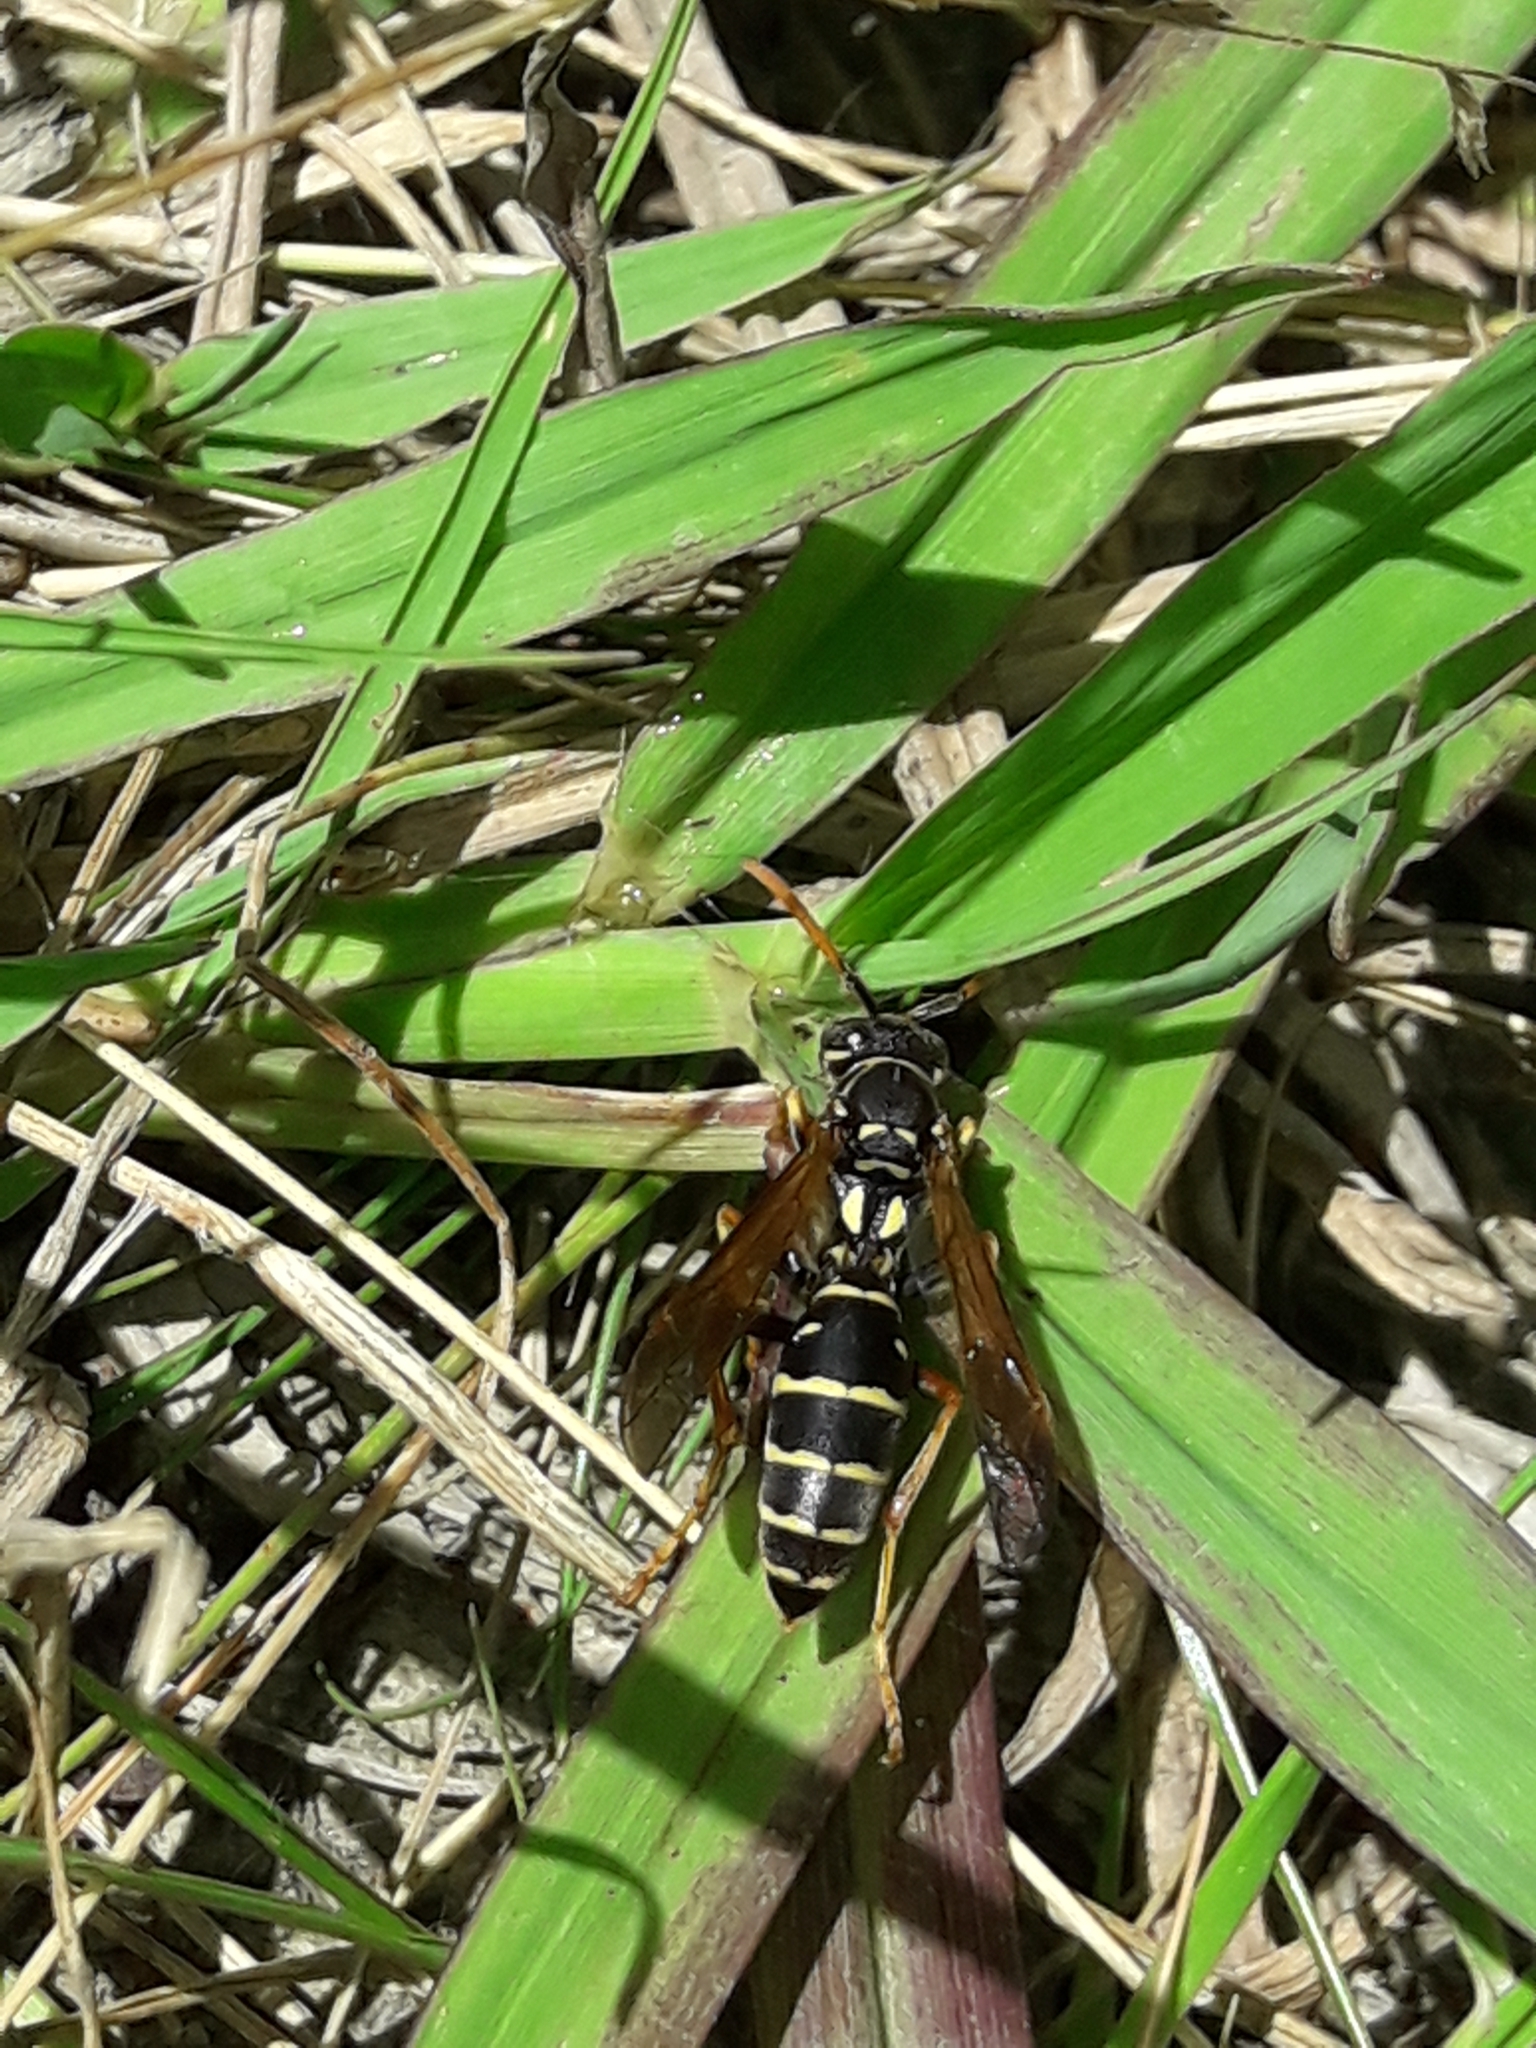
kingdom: Animalia
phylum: Arthropoda
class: Insecta
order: Hymenoptera
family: Eumenidae
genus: Polistes
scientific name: Polistes chinensis
